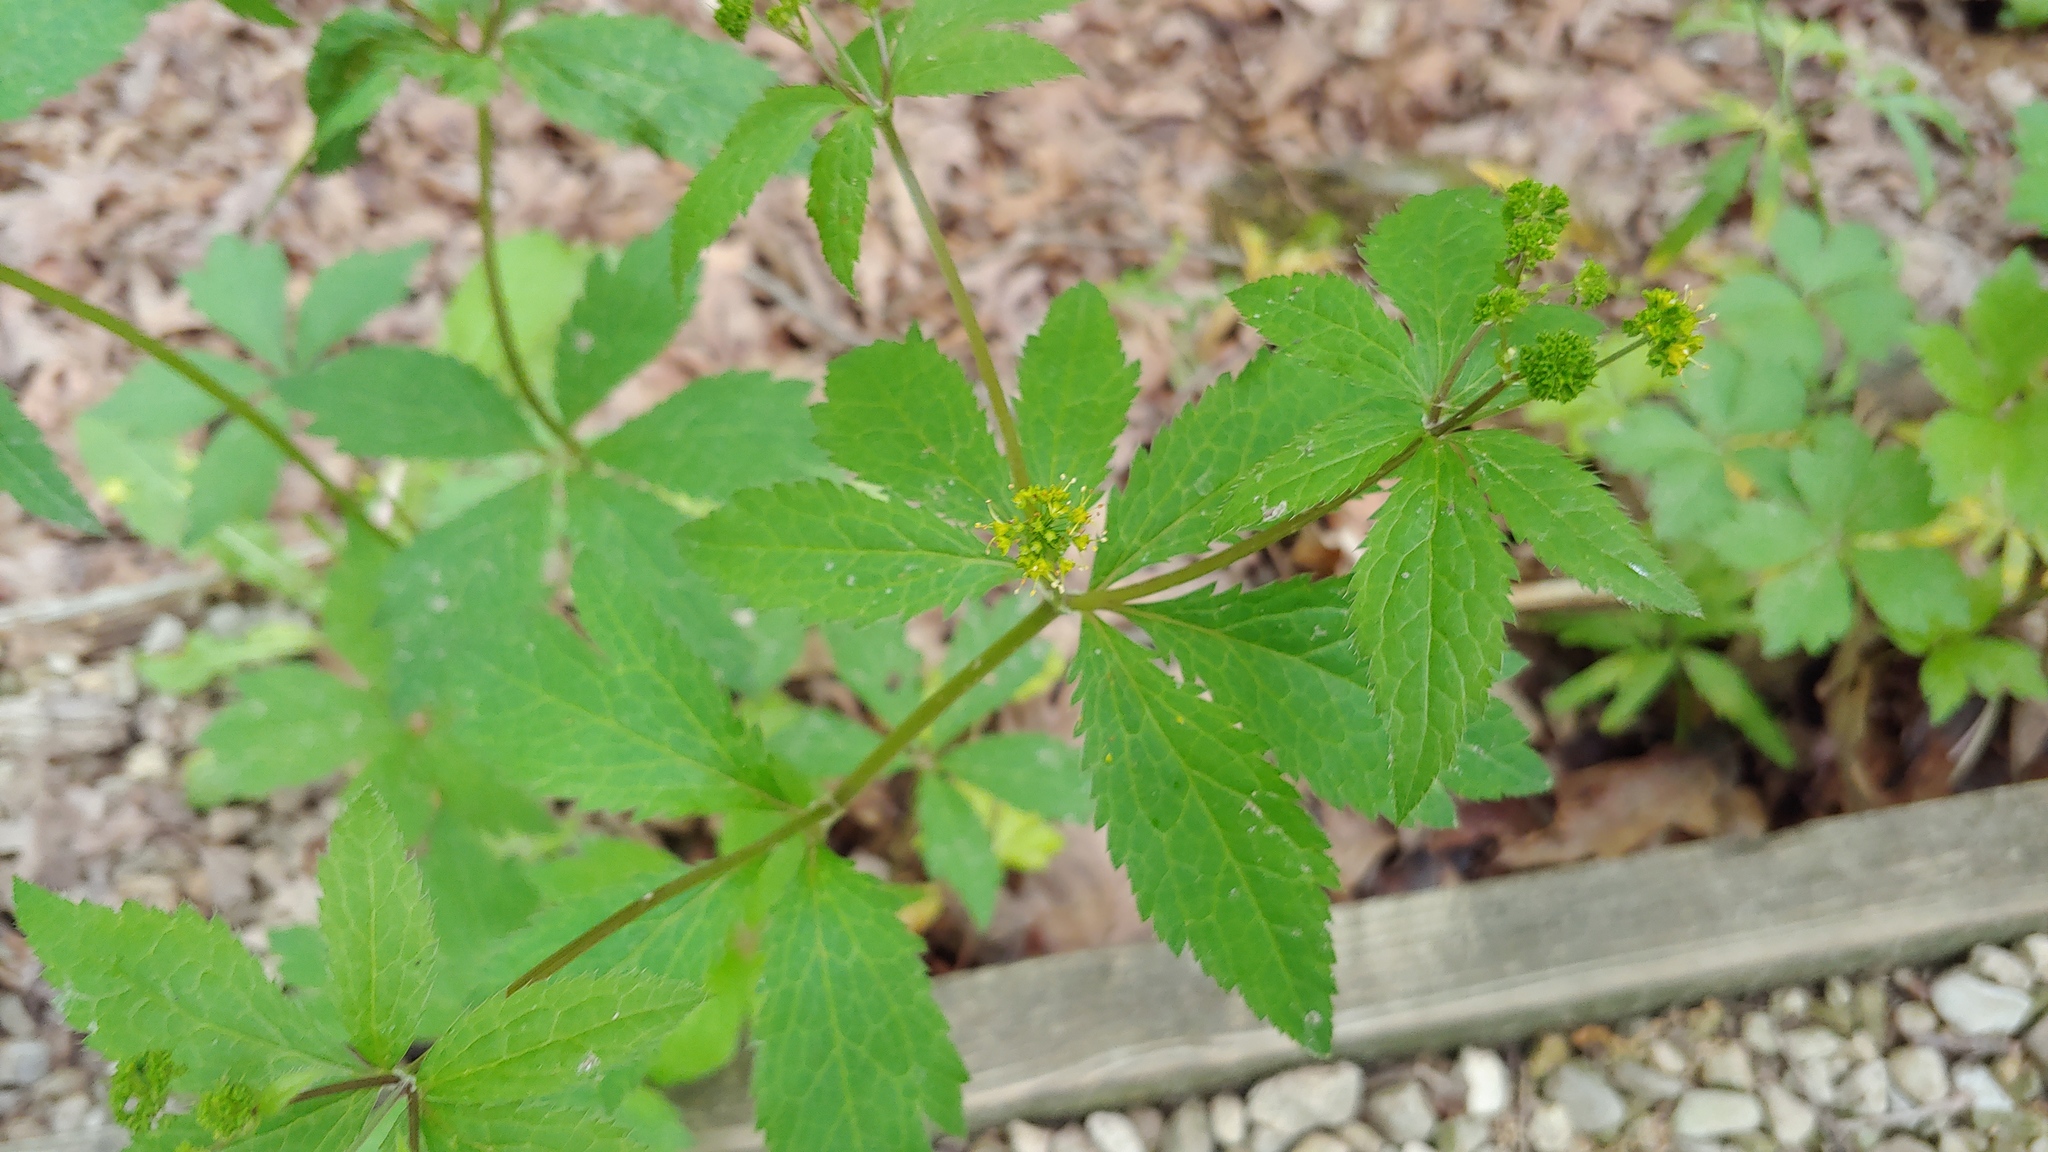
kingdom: Plantae
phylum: Tracheophyta
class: Magnoliopsida
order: Apiales
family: Apiaceae
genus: Sanicula
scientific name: Sanicula odorata
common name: Cluster sanicle
